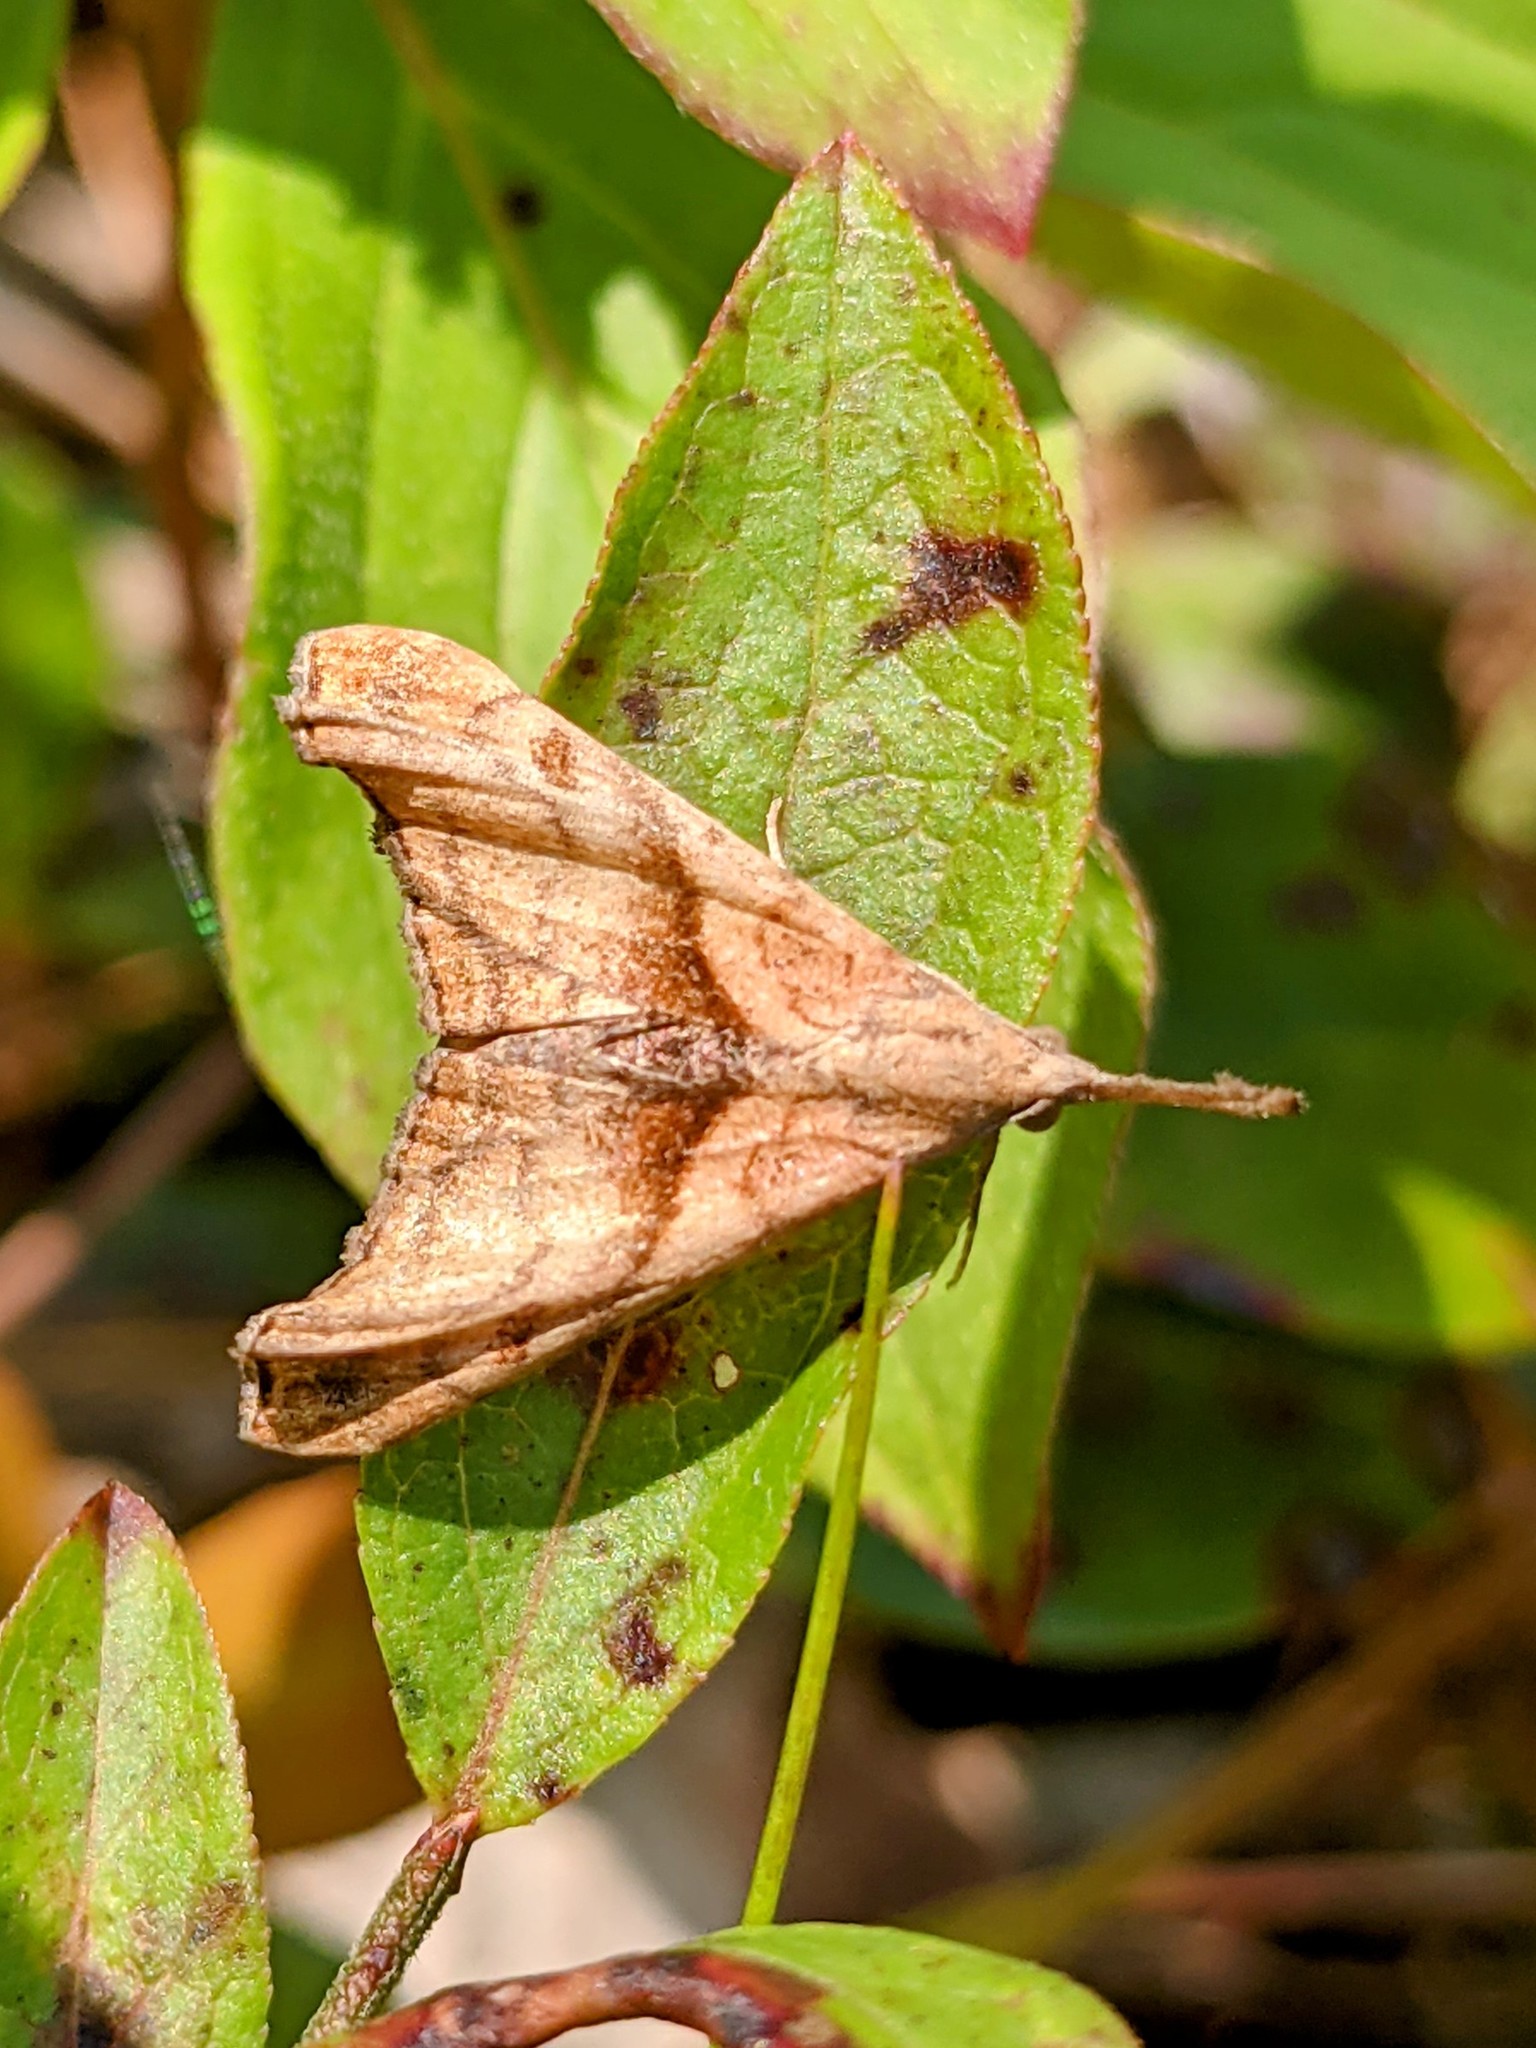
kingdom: Animalia
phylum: Arthropoda
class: Insecta
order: Lepidoptera
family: Erebidae
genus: Palthis
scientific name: Palthis angulalis
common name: Dark-spotted palthis moth
